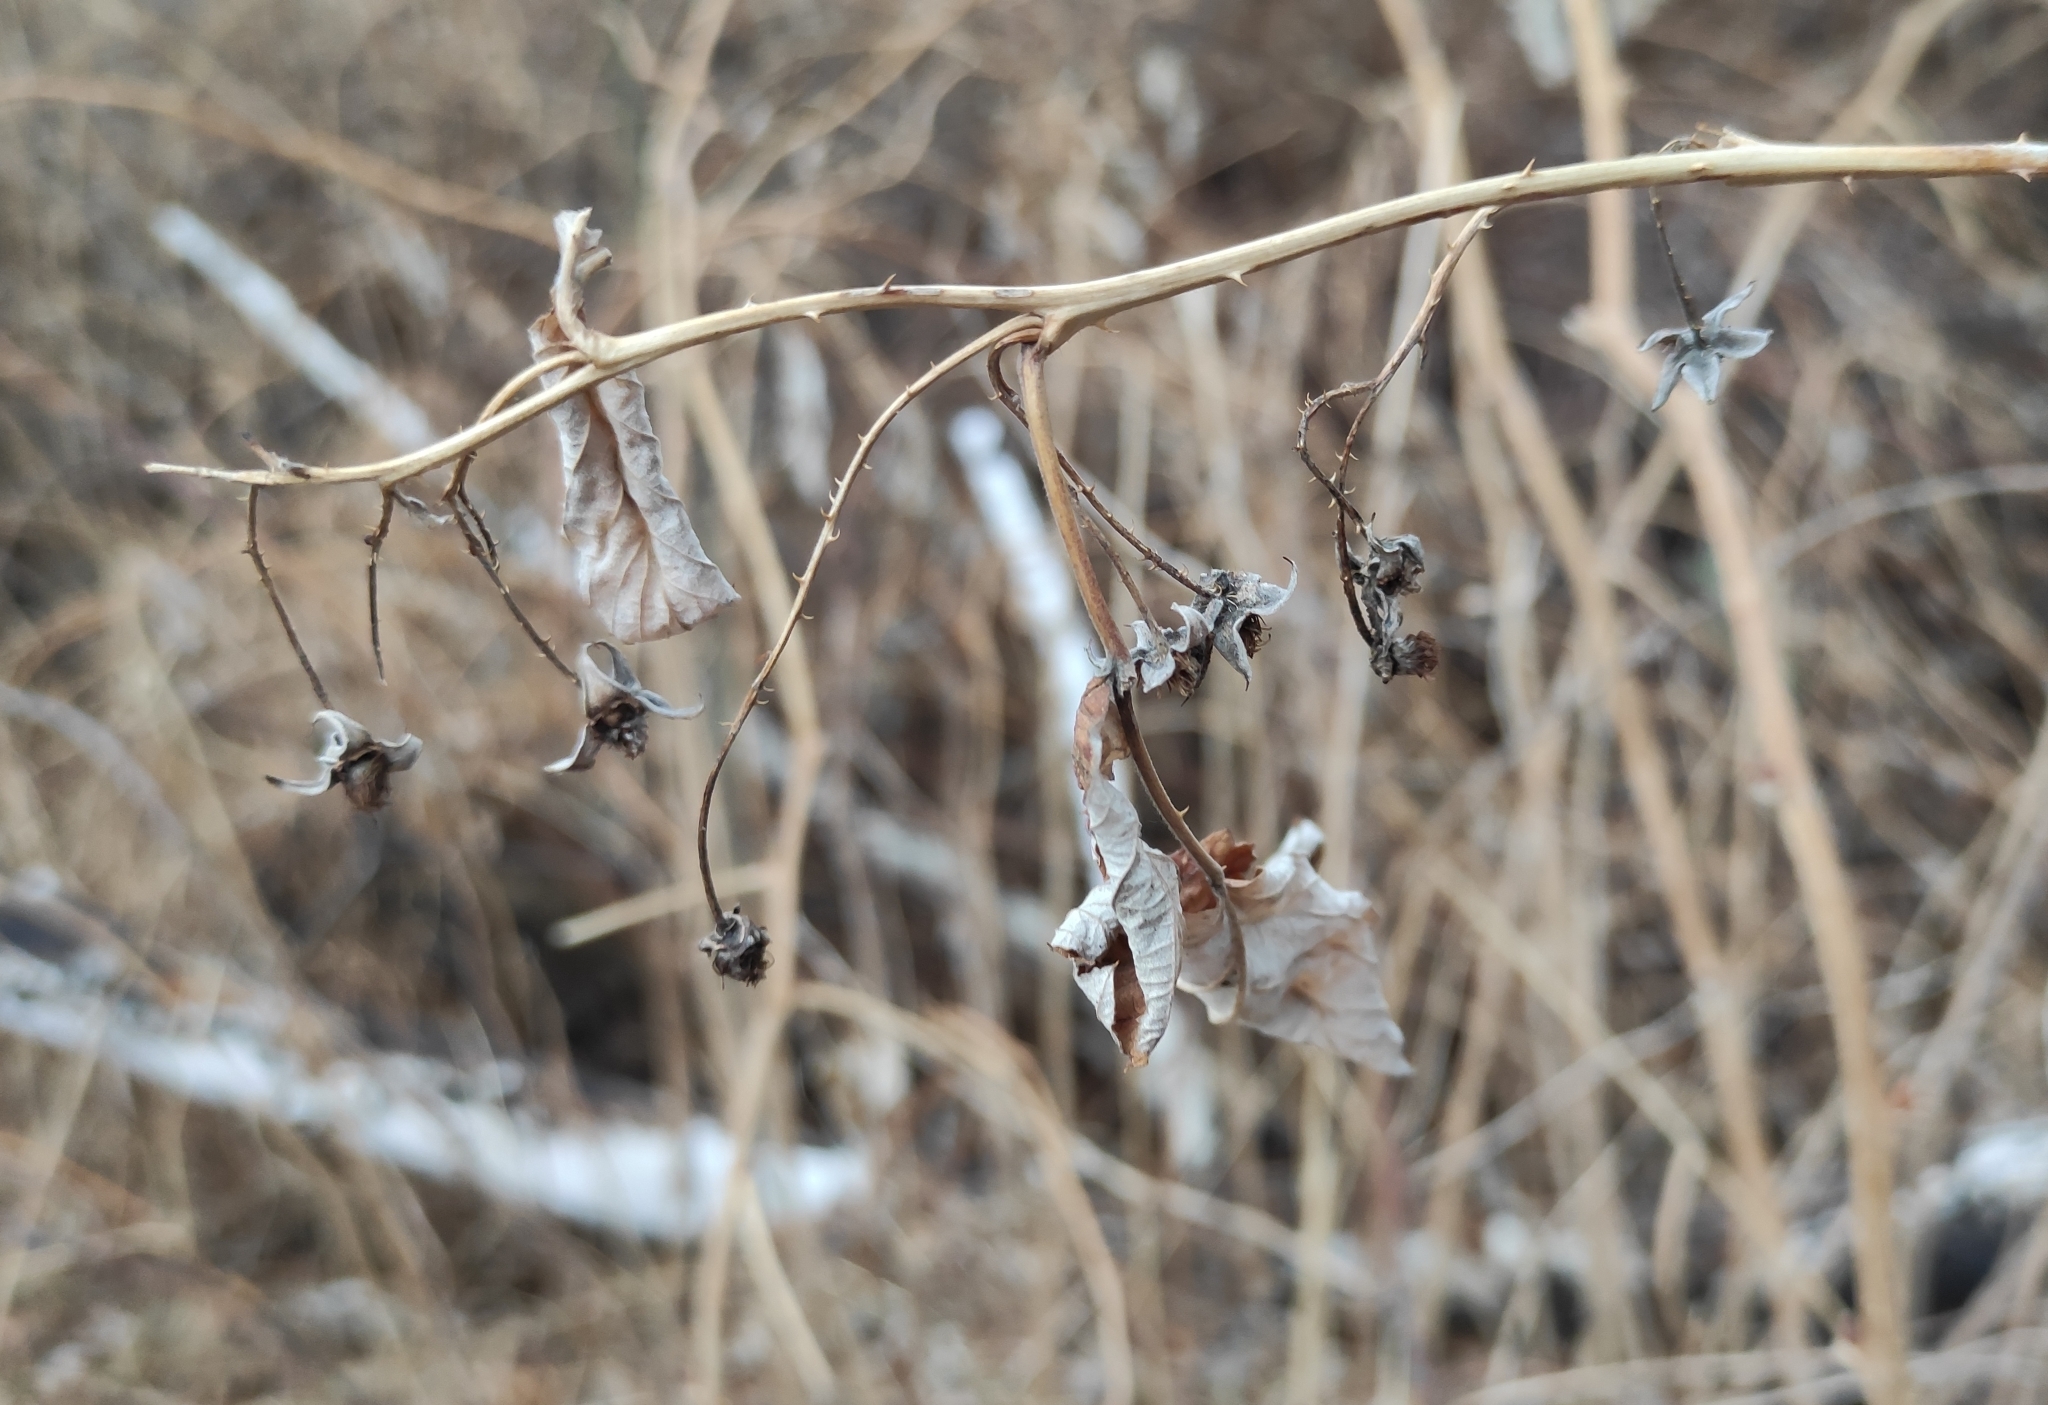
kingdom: Plantae
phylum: Tracheophyta
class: Magnoliopsida
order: Rosales
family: Rosaceae
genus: Rubus
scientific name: Rubus idaeus
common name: Raspberry
